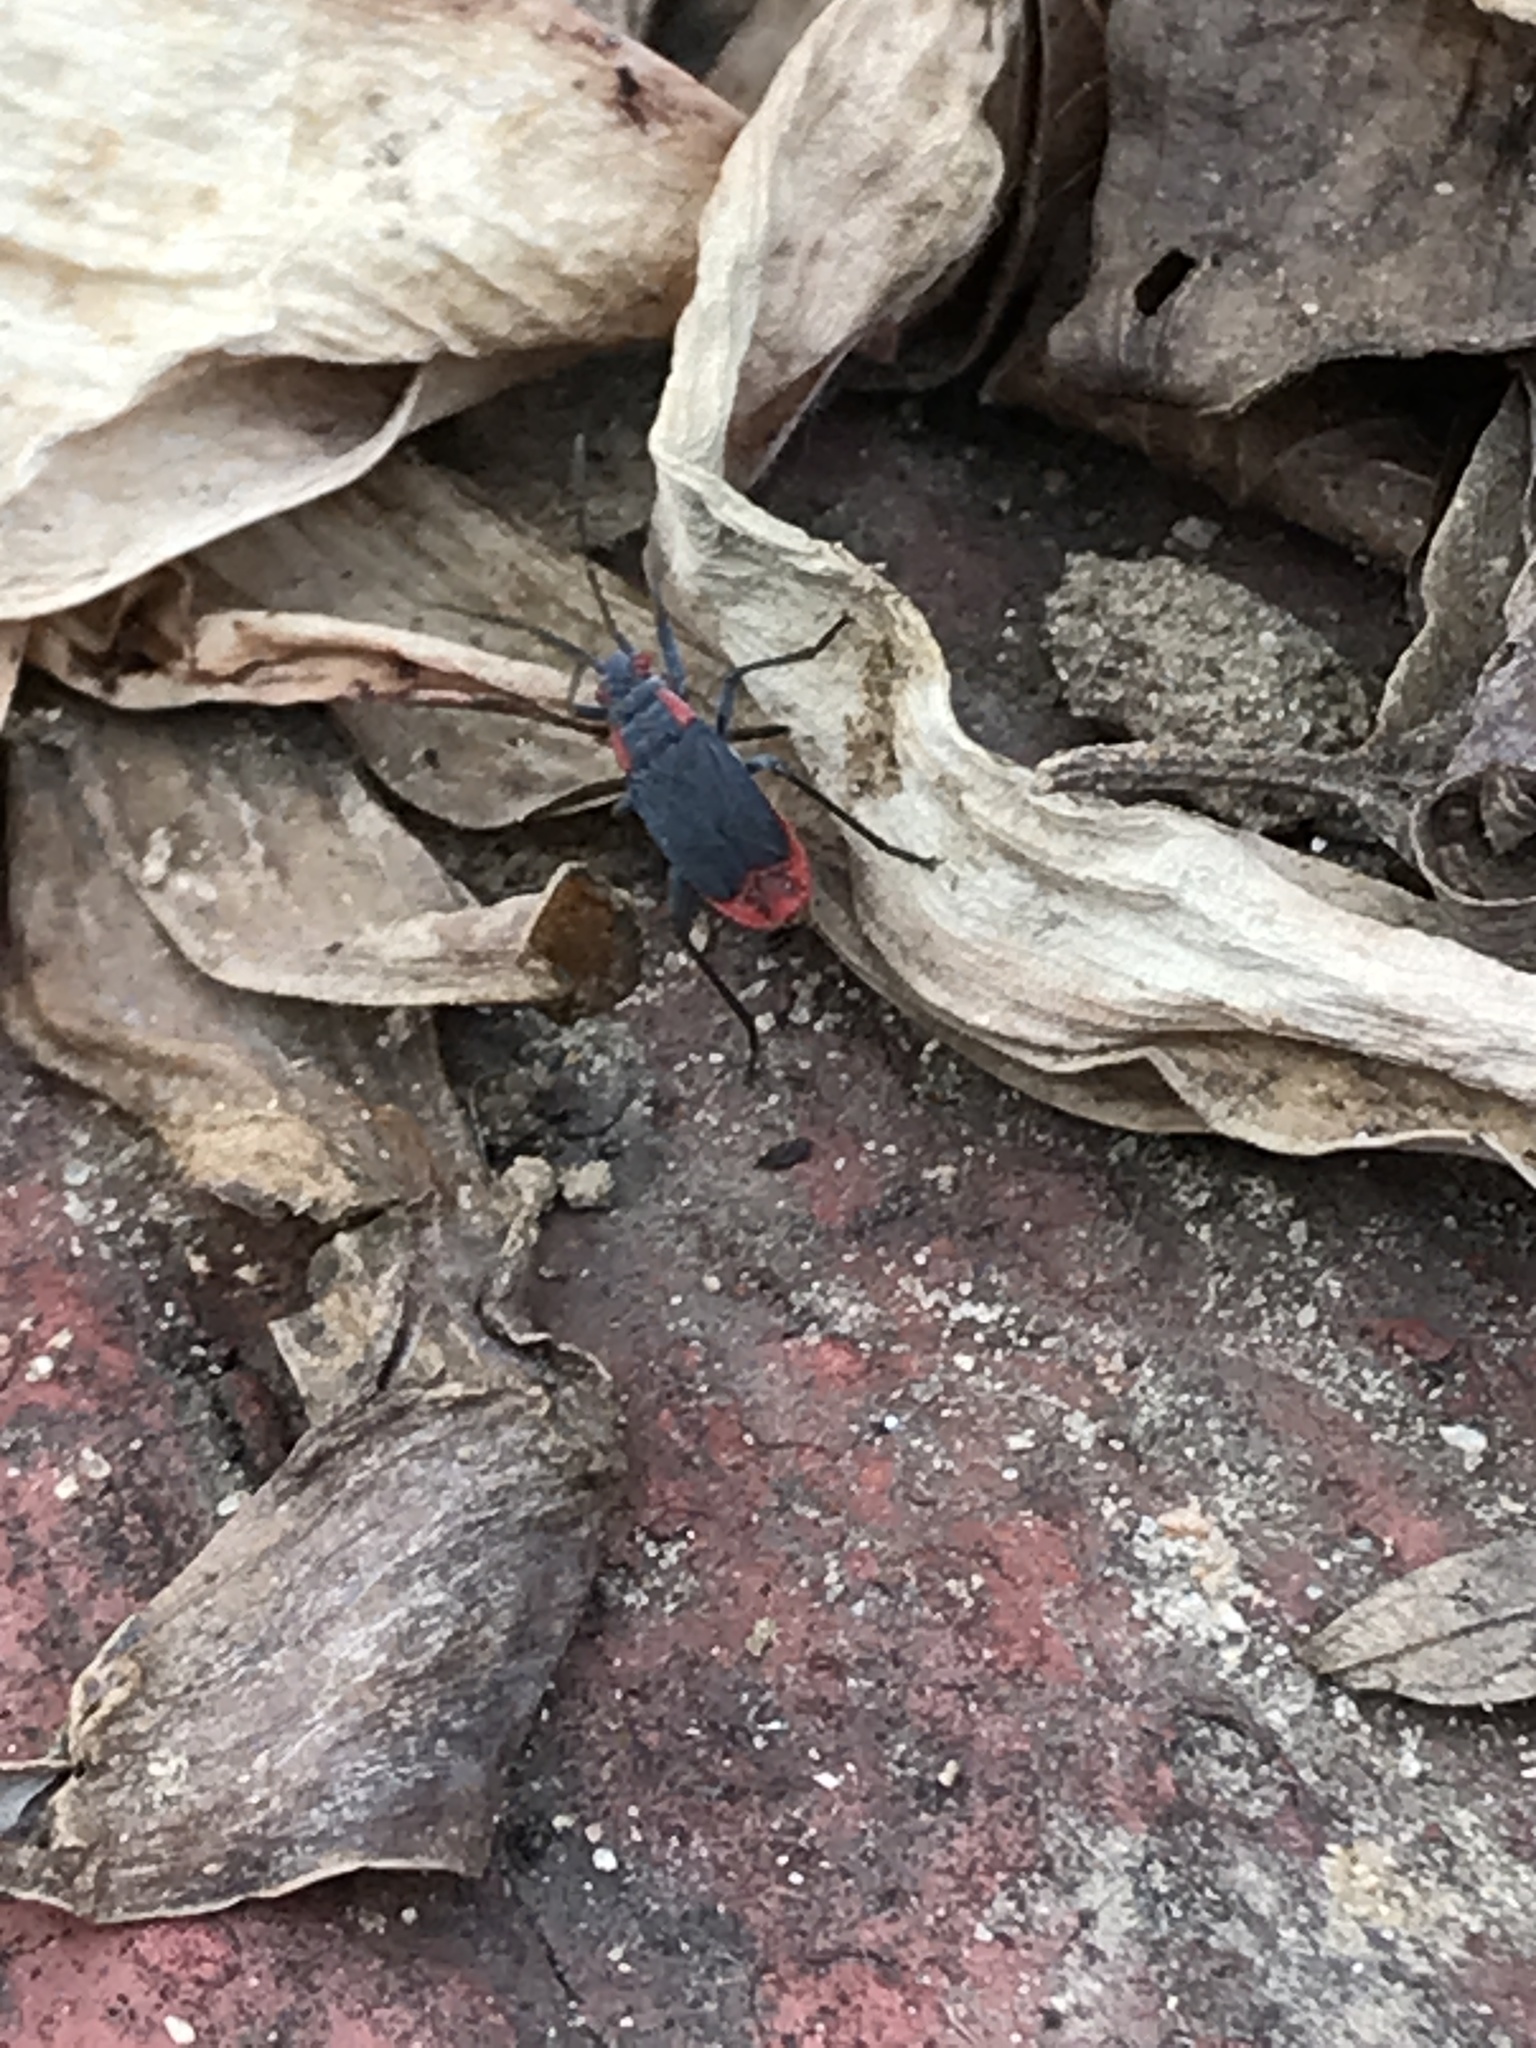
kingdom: Animalia
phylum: Arthropoda
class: Insecta
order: Hemiptera
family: Rhopalidae
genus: Jadera
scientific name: Jadera haematoloma
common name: Red-shouldered bug
